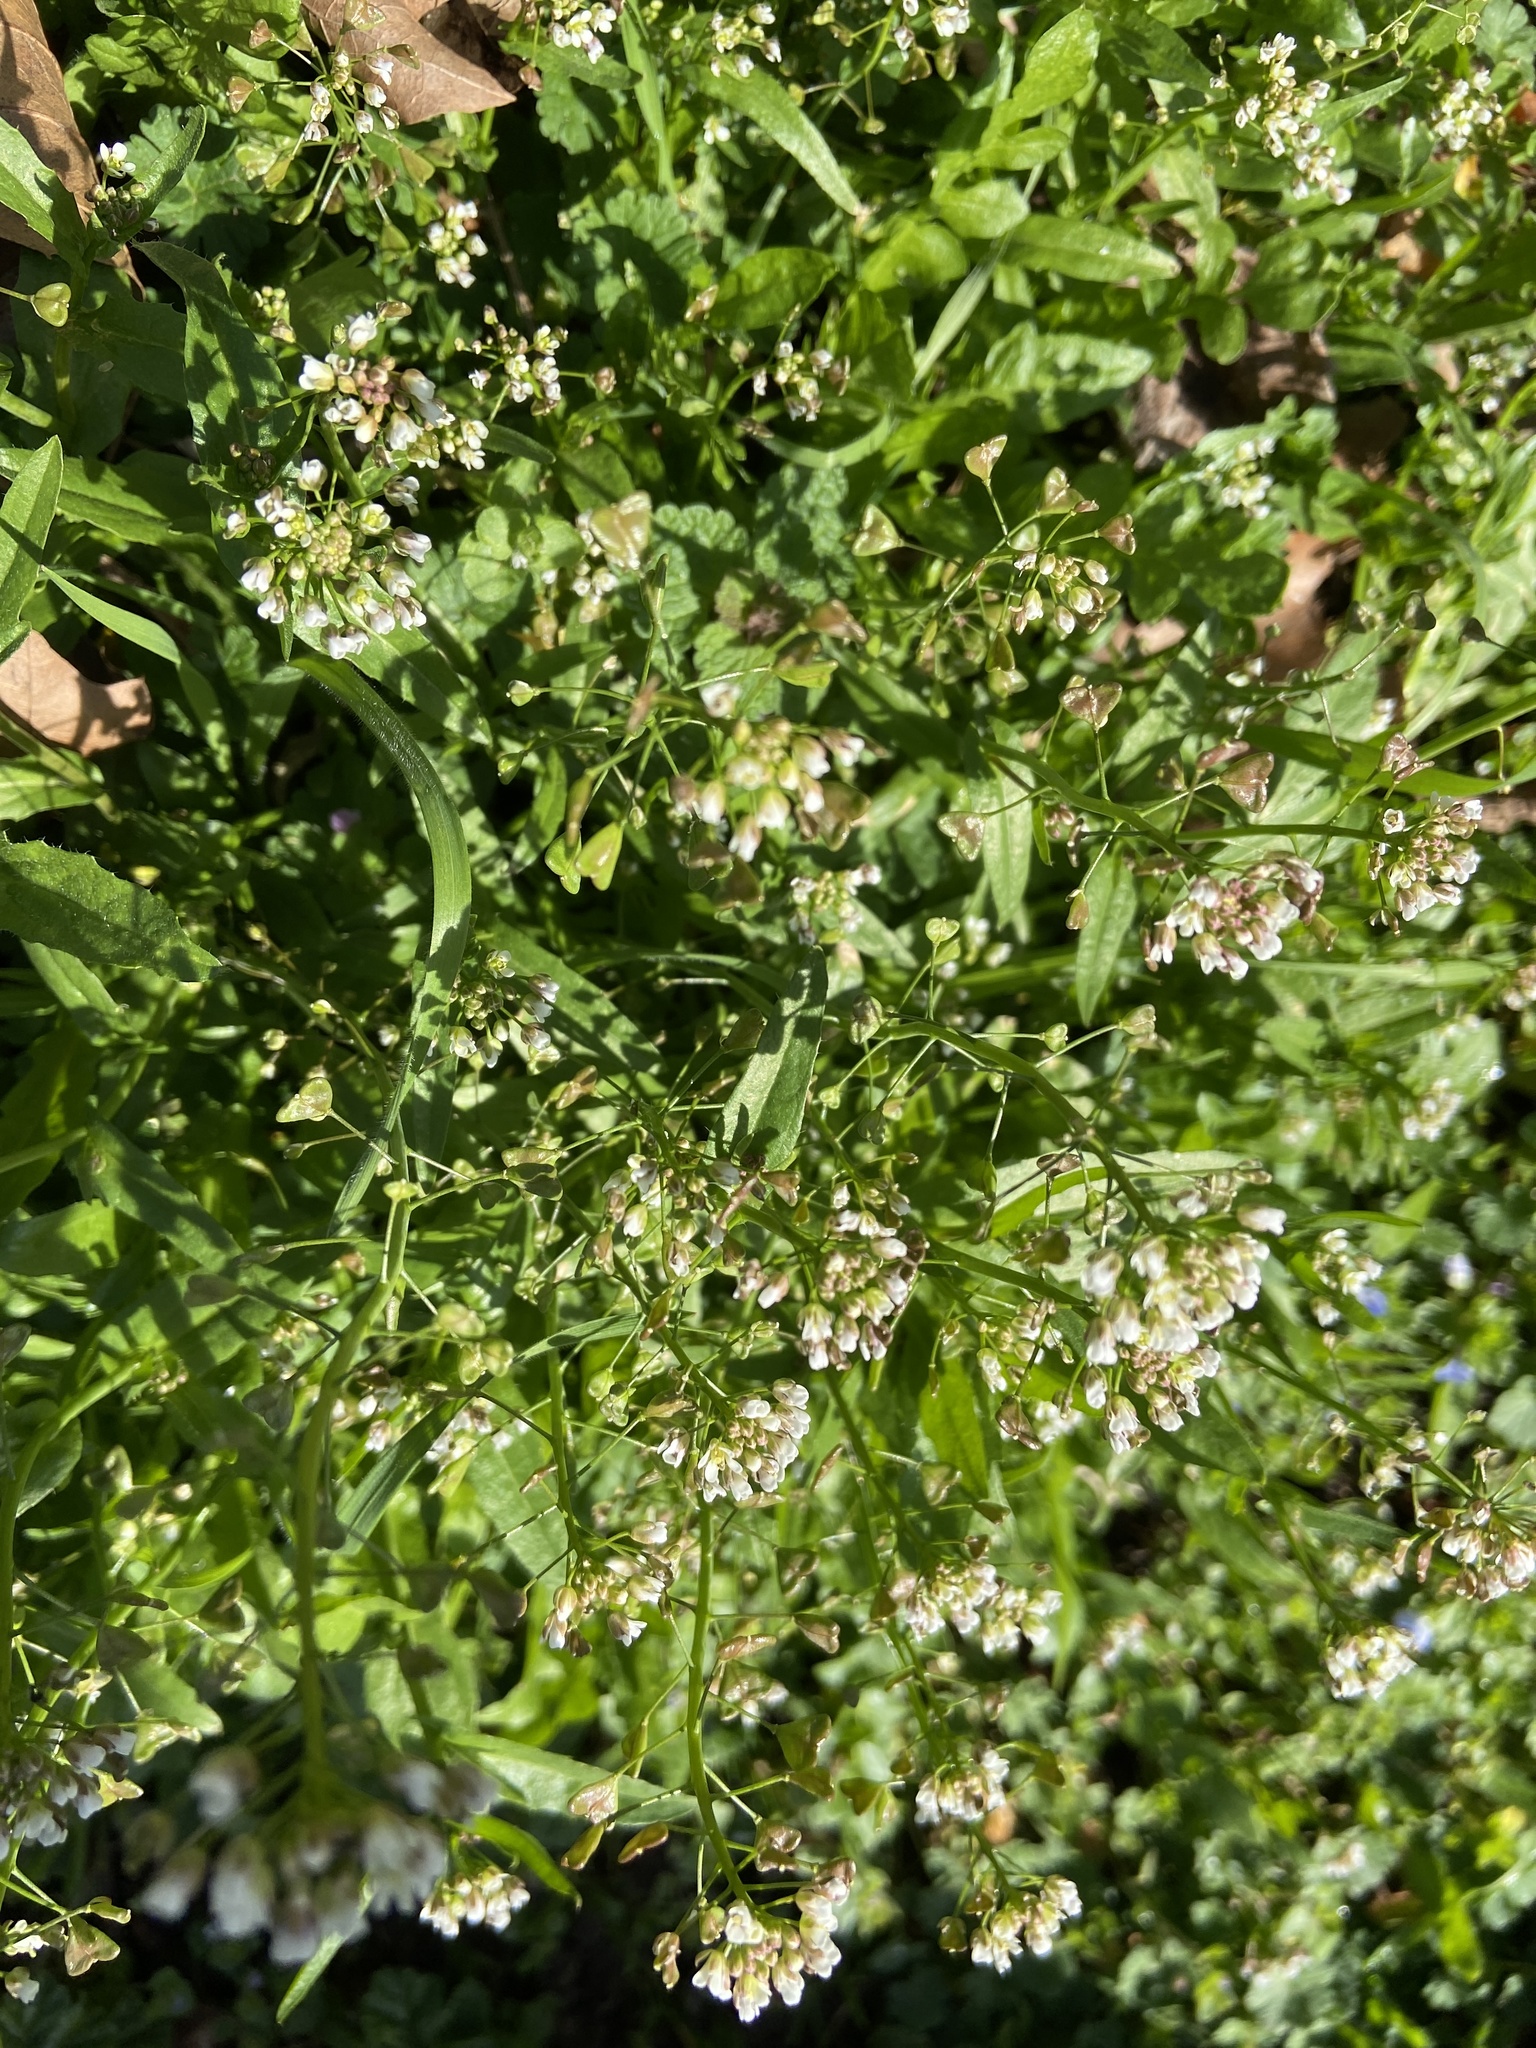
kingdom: Plantae
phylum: Tracheophyta
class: Magnoliopsida
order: Brassicales
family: Brassicaceae
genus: Capsella
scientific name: Capsella bursa-pastoris
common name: Shepherd's purse
